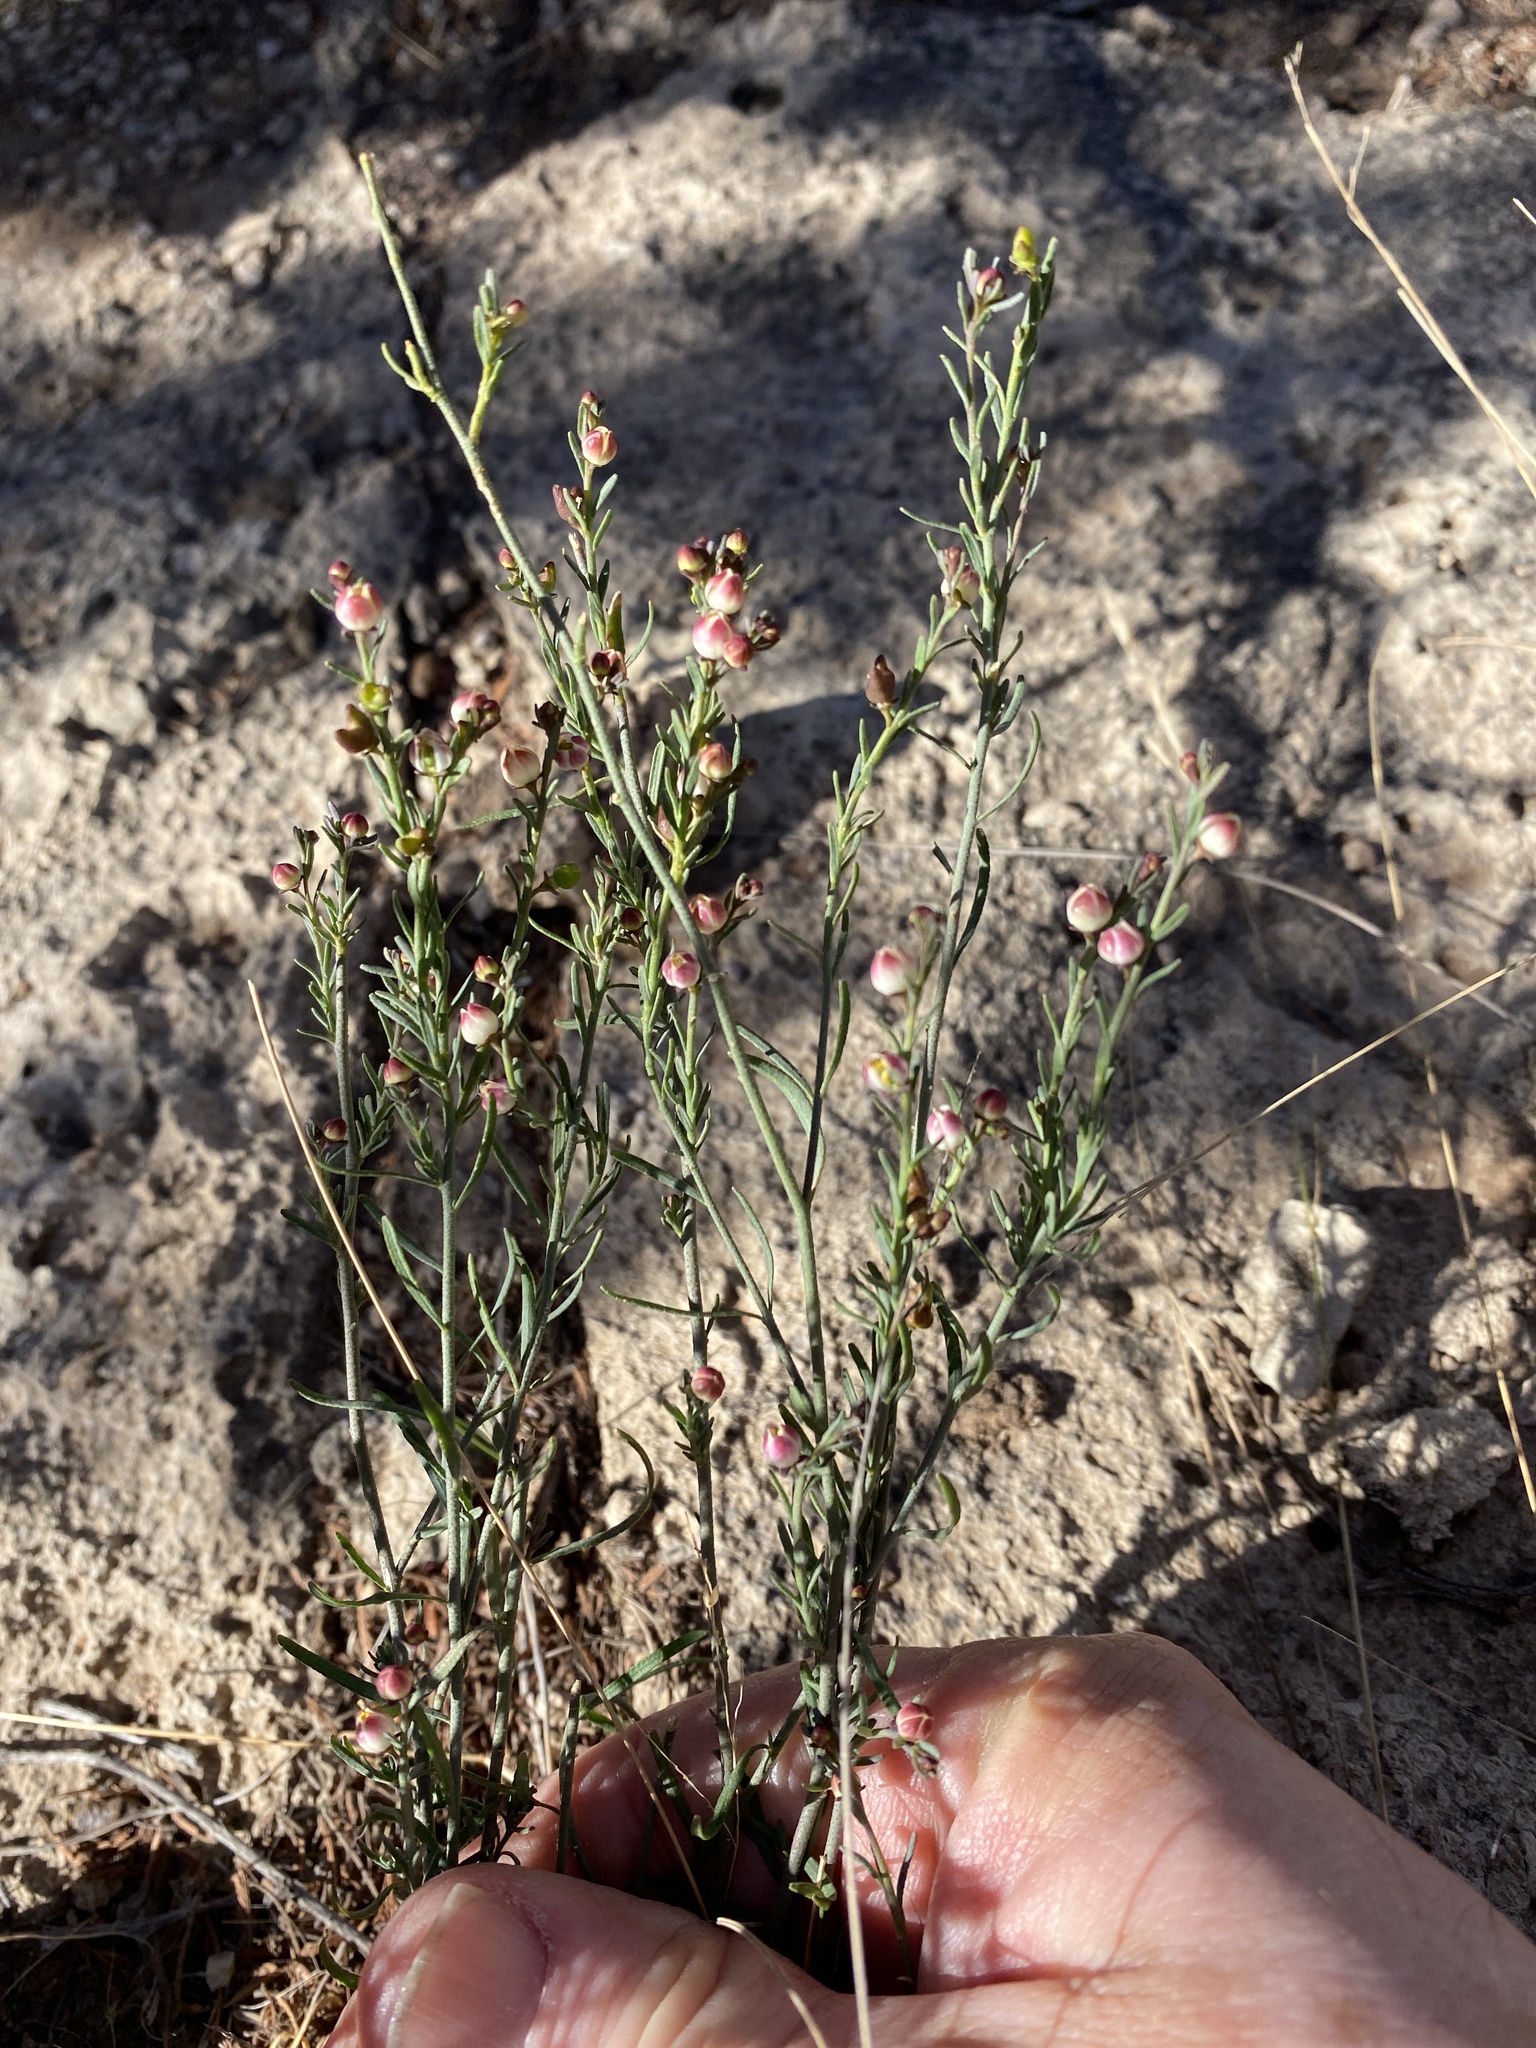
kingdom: Plantae
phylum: Tracheophyta
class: Magnoliopsida
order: Sapindales
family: Rutaceae
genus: Thamnosma
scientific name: Thamnosma texana
